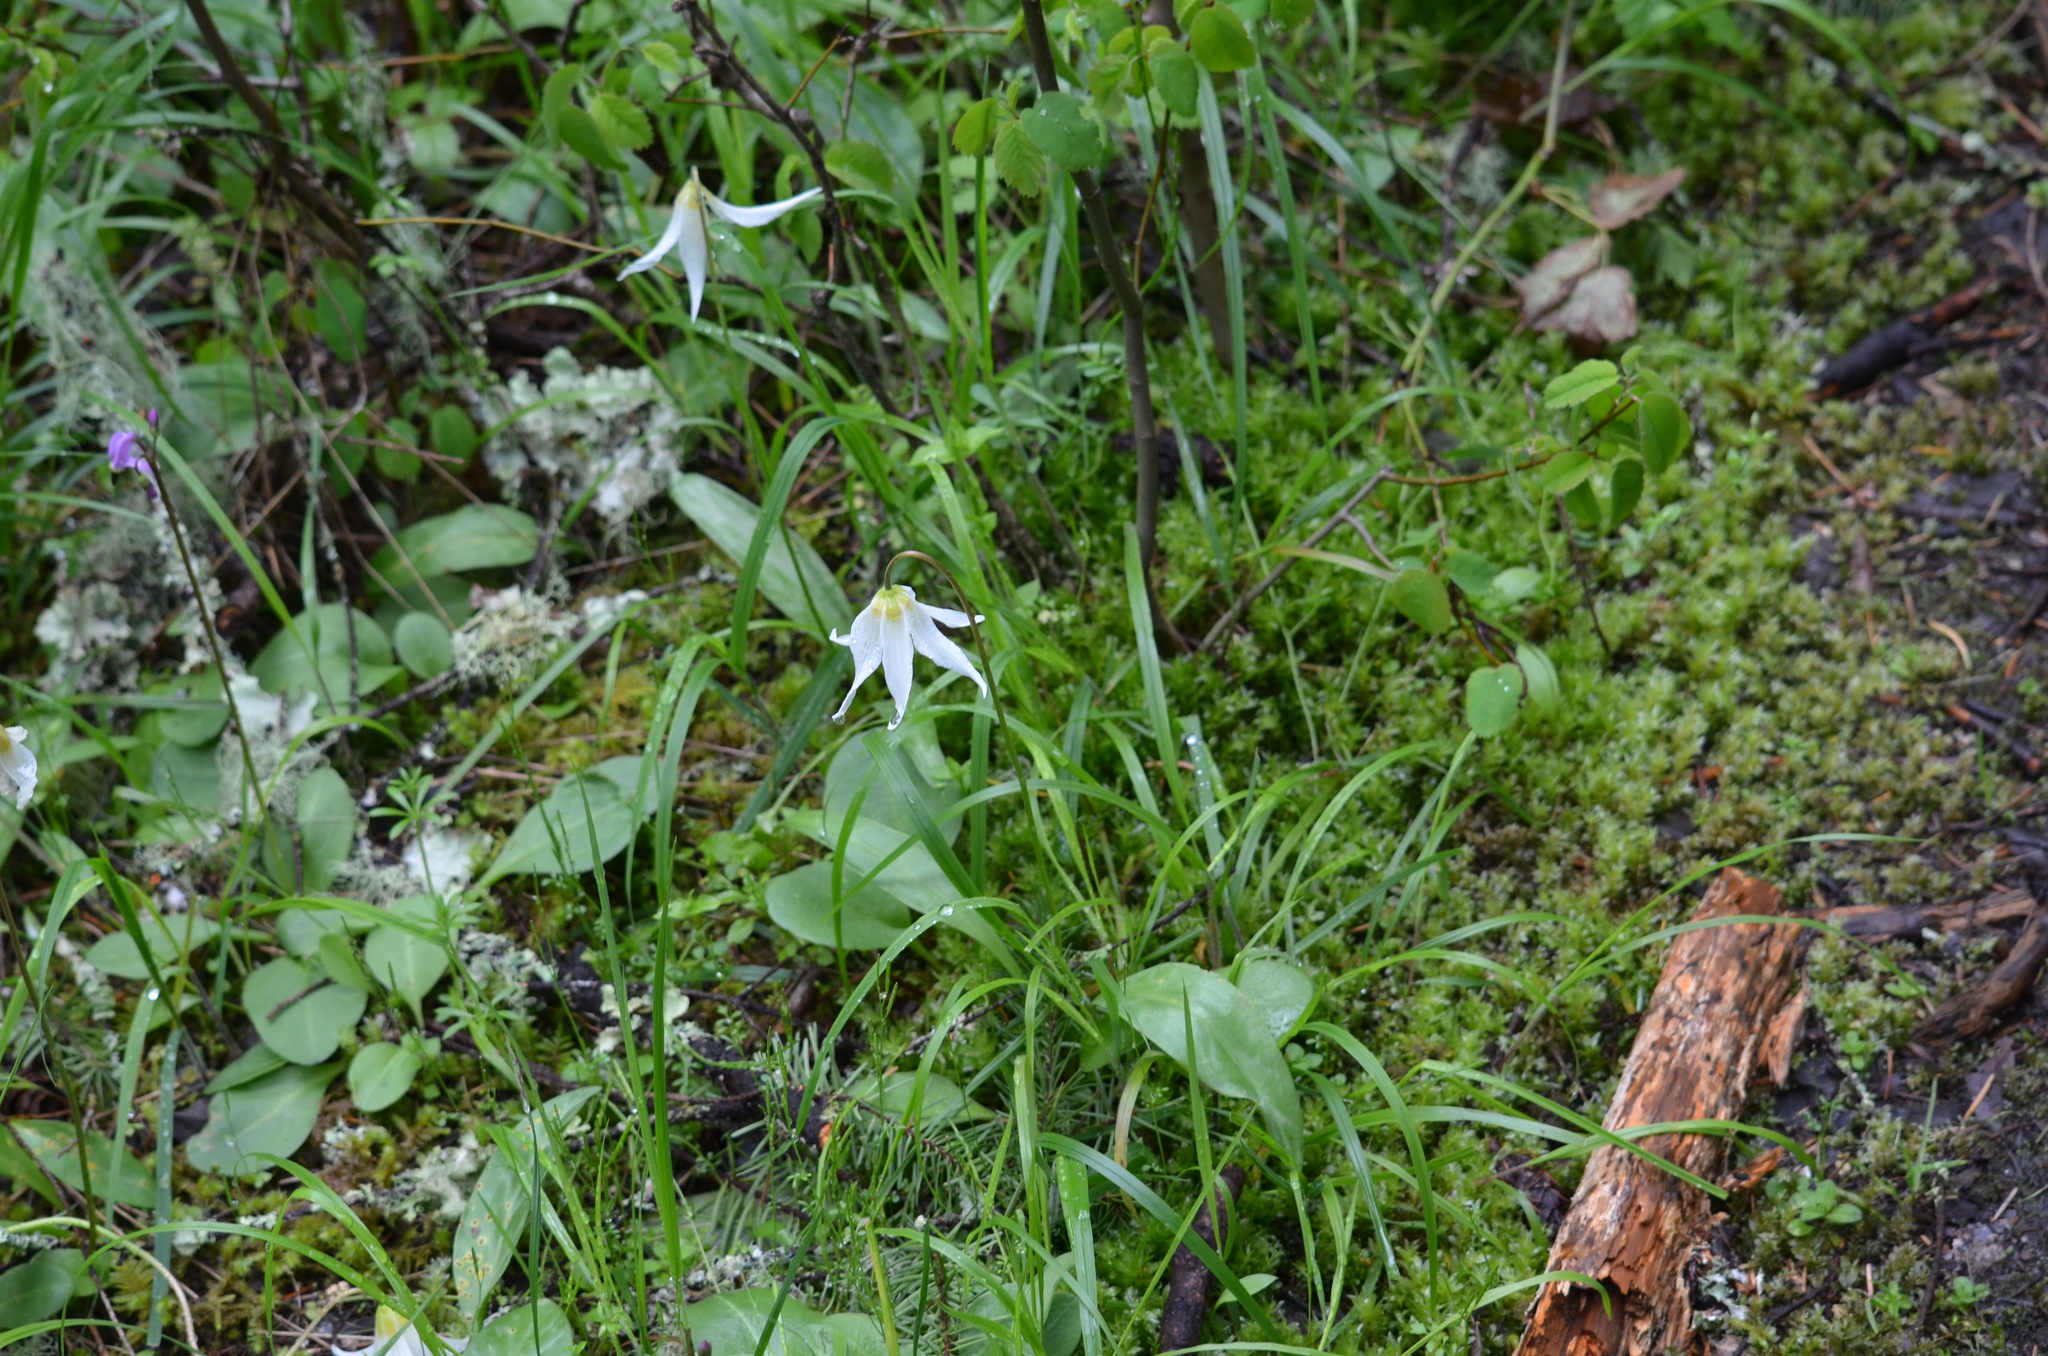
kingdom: Plantae
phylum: Tracheophyta
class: Liliopsida
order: Liliales
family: Liliaceae
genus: Erythronium
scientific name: Erythronium oregonum
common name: Giant adder's-tongue
